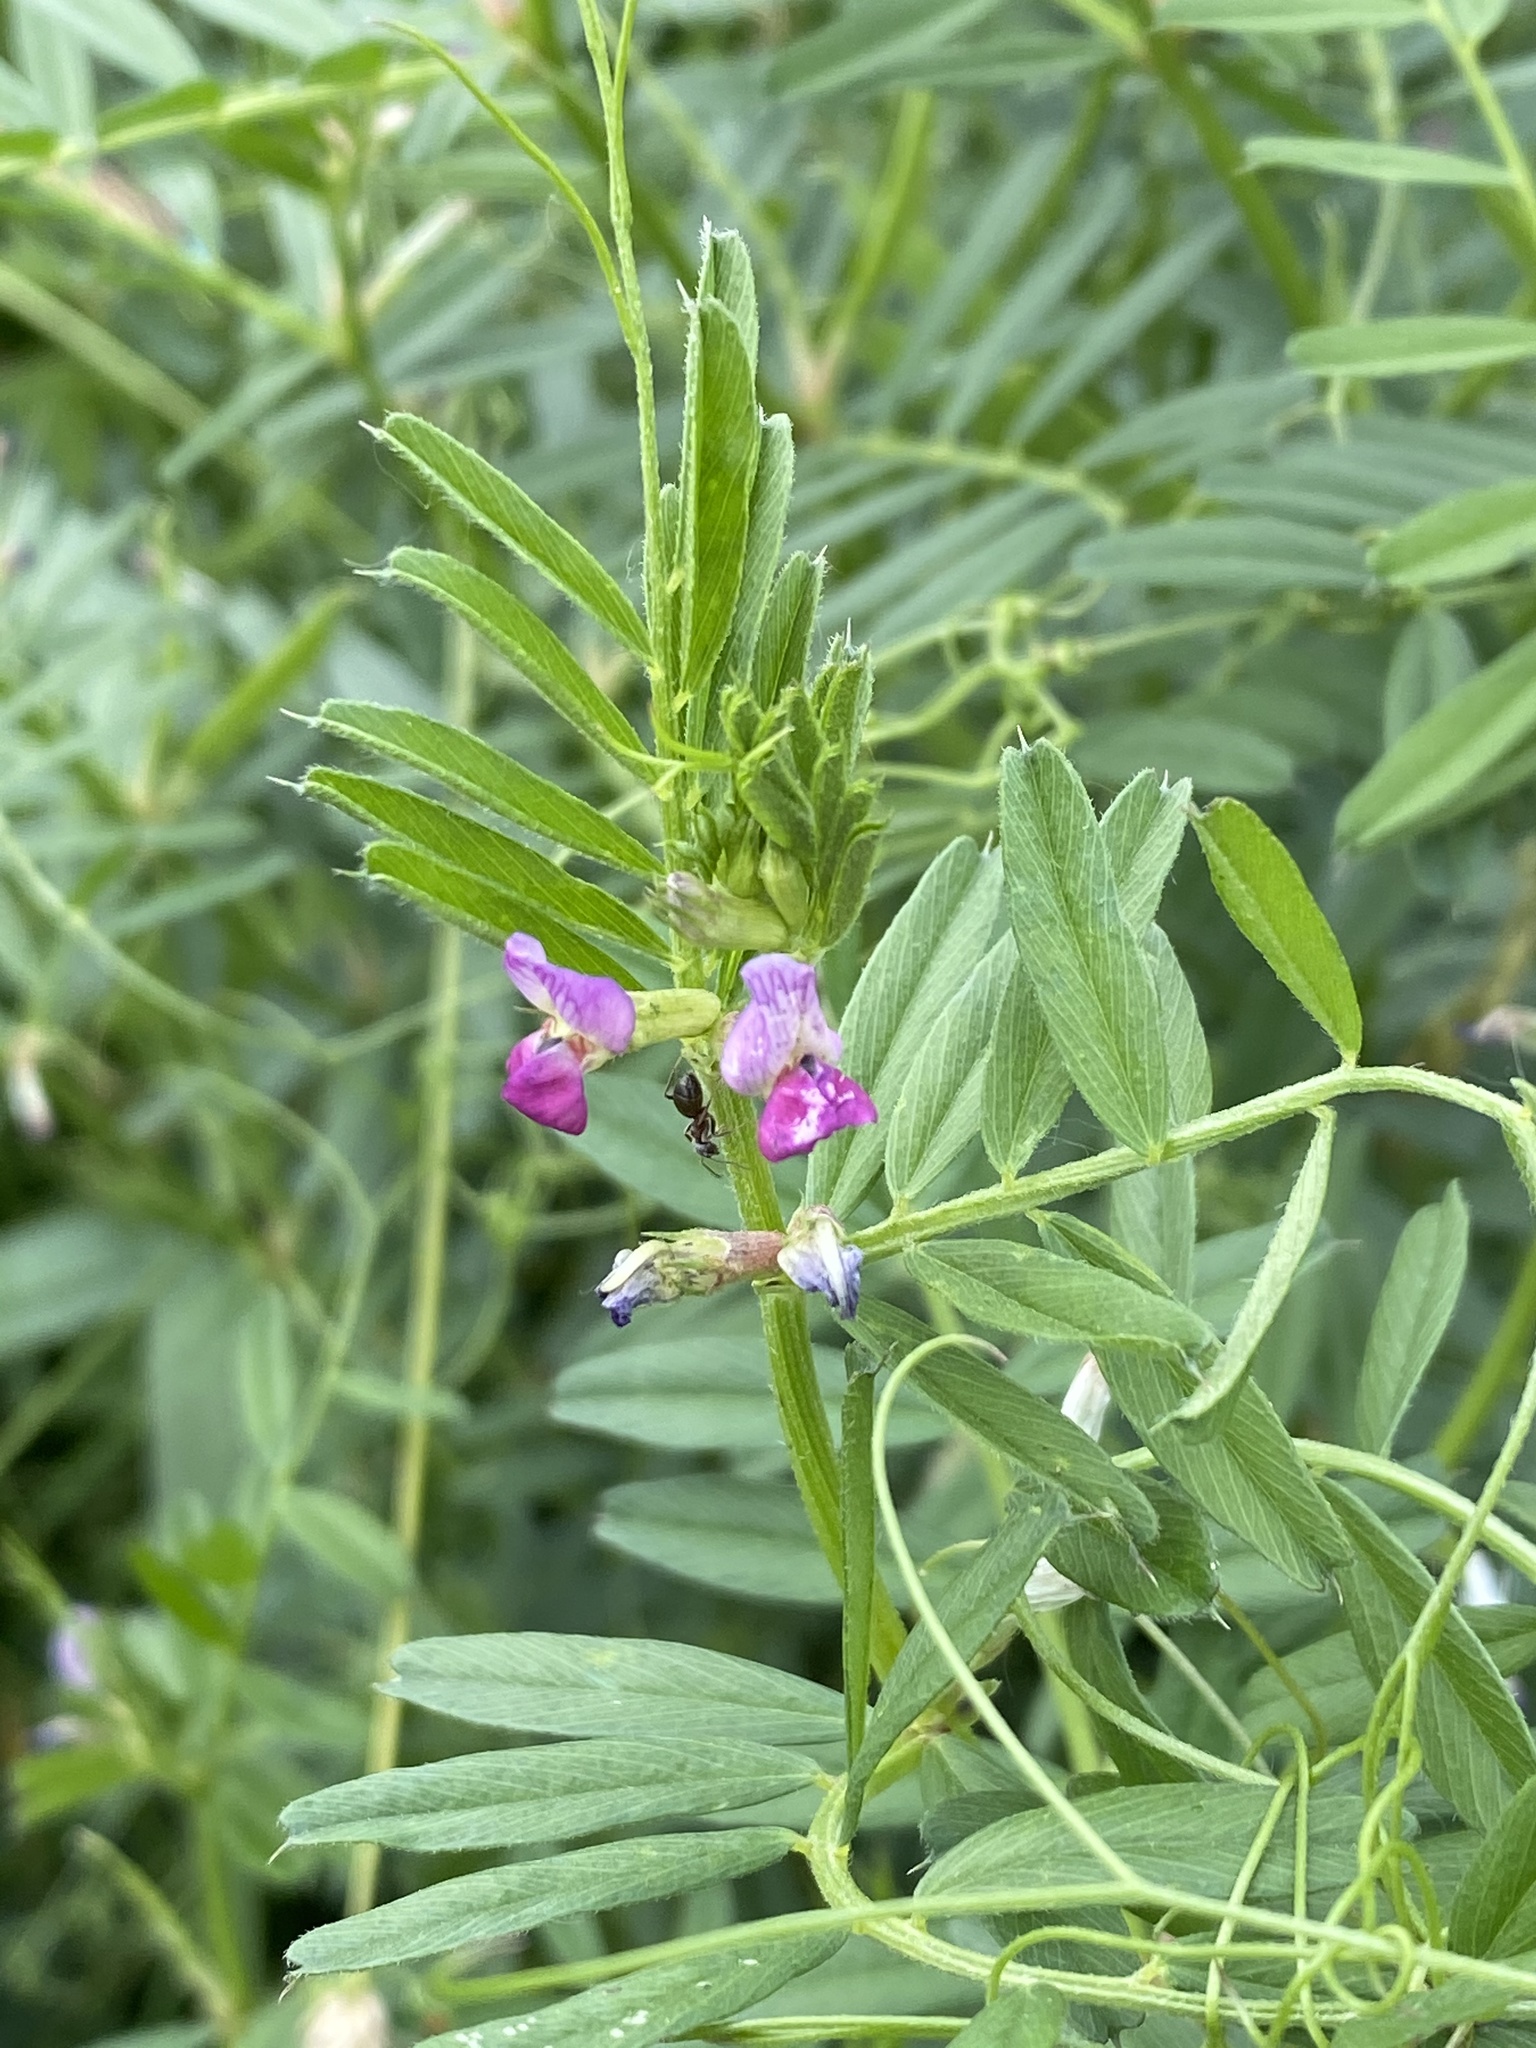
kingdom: Plantae
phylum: Tracheophyta
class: Magnoliopsida
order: Fabales
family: Fabaceae
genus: Vicia
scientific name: Vicia sativa
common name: Garden vetch
